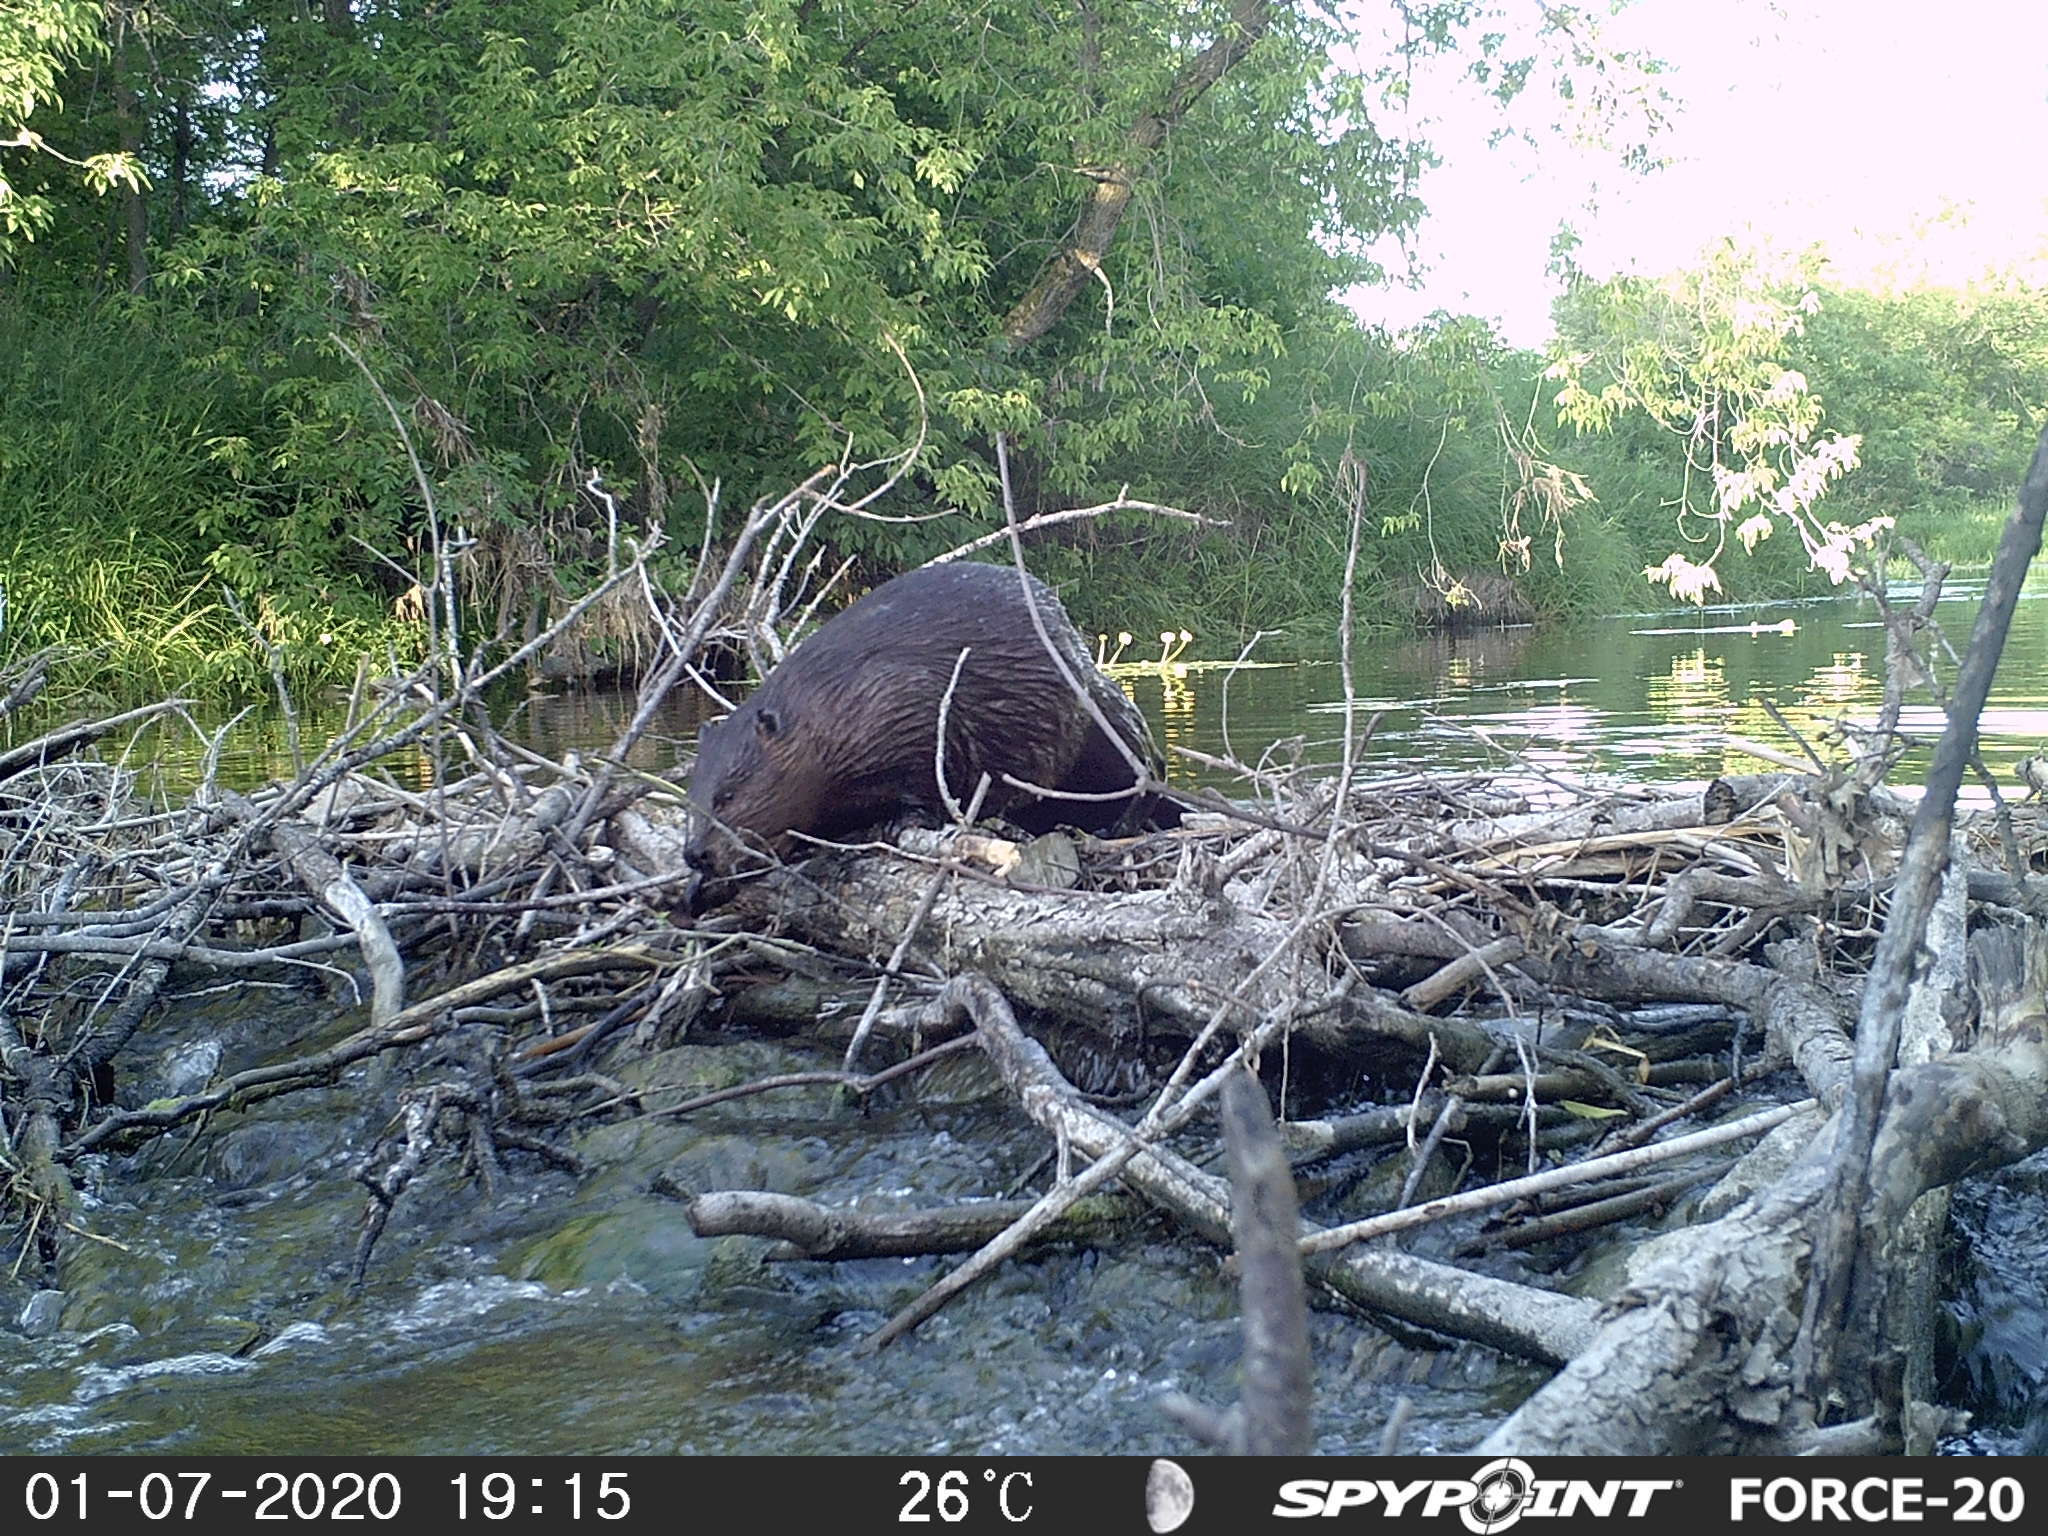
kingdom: Animalia
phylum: Chordata
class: Mammalia
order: Rodentia
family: Castoridae
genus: Castor
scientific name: Castor canadensis
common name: American beaver
